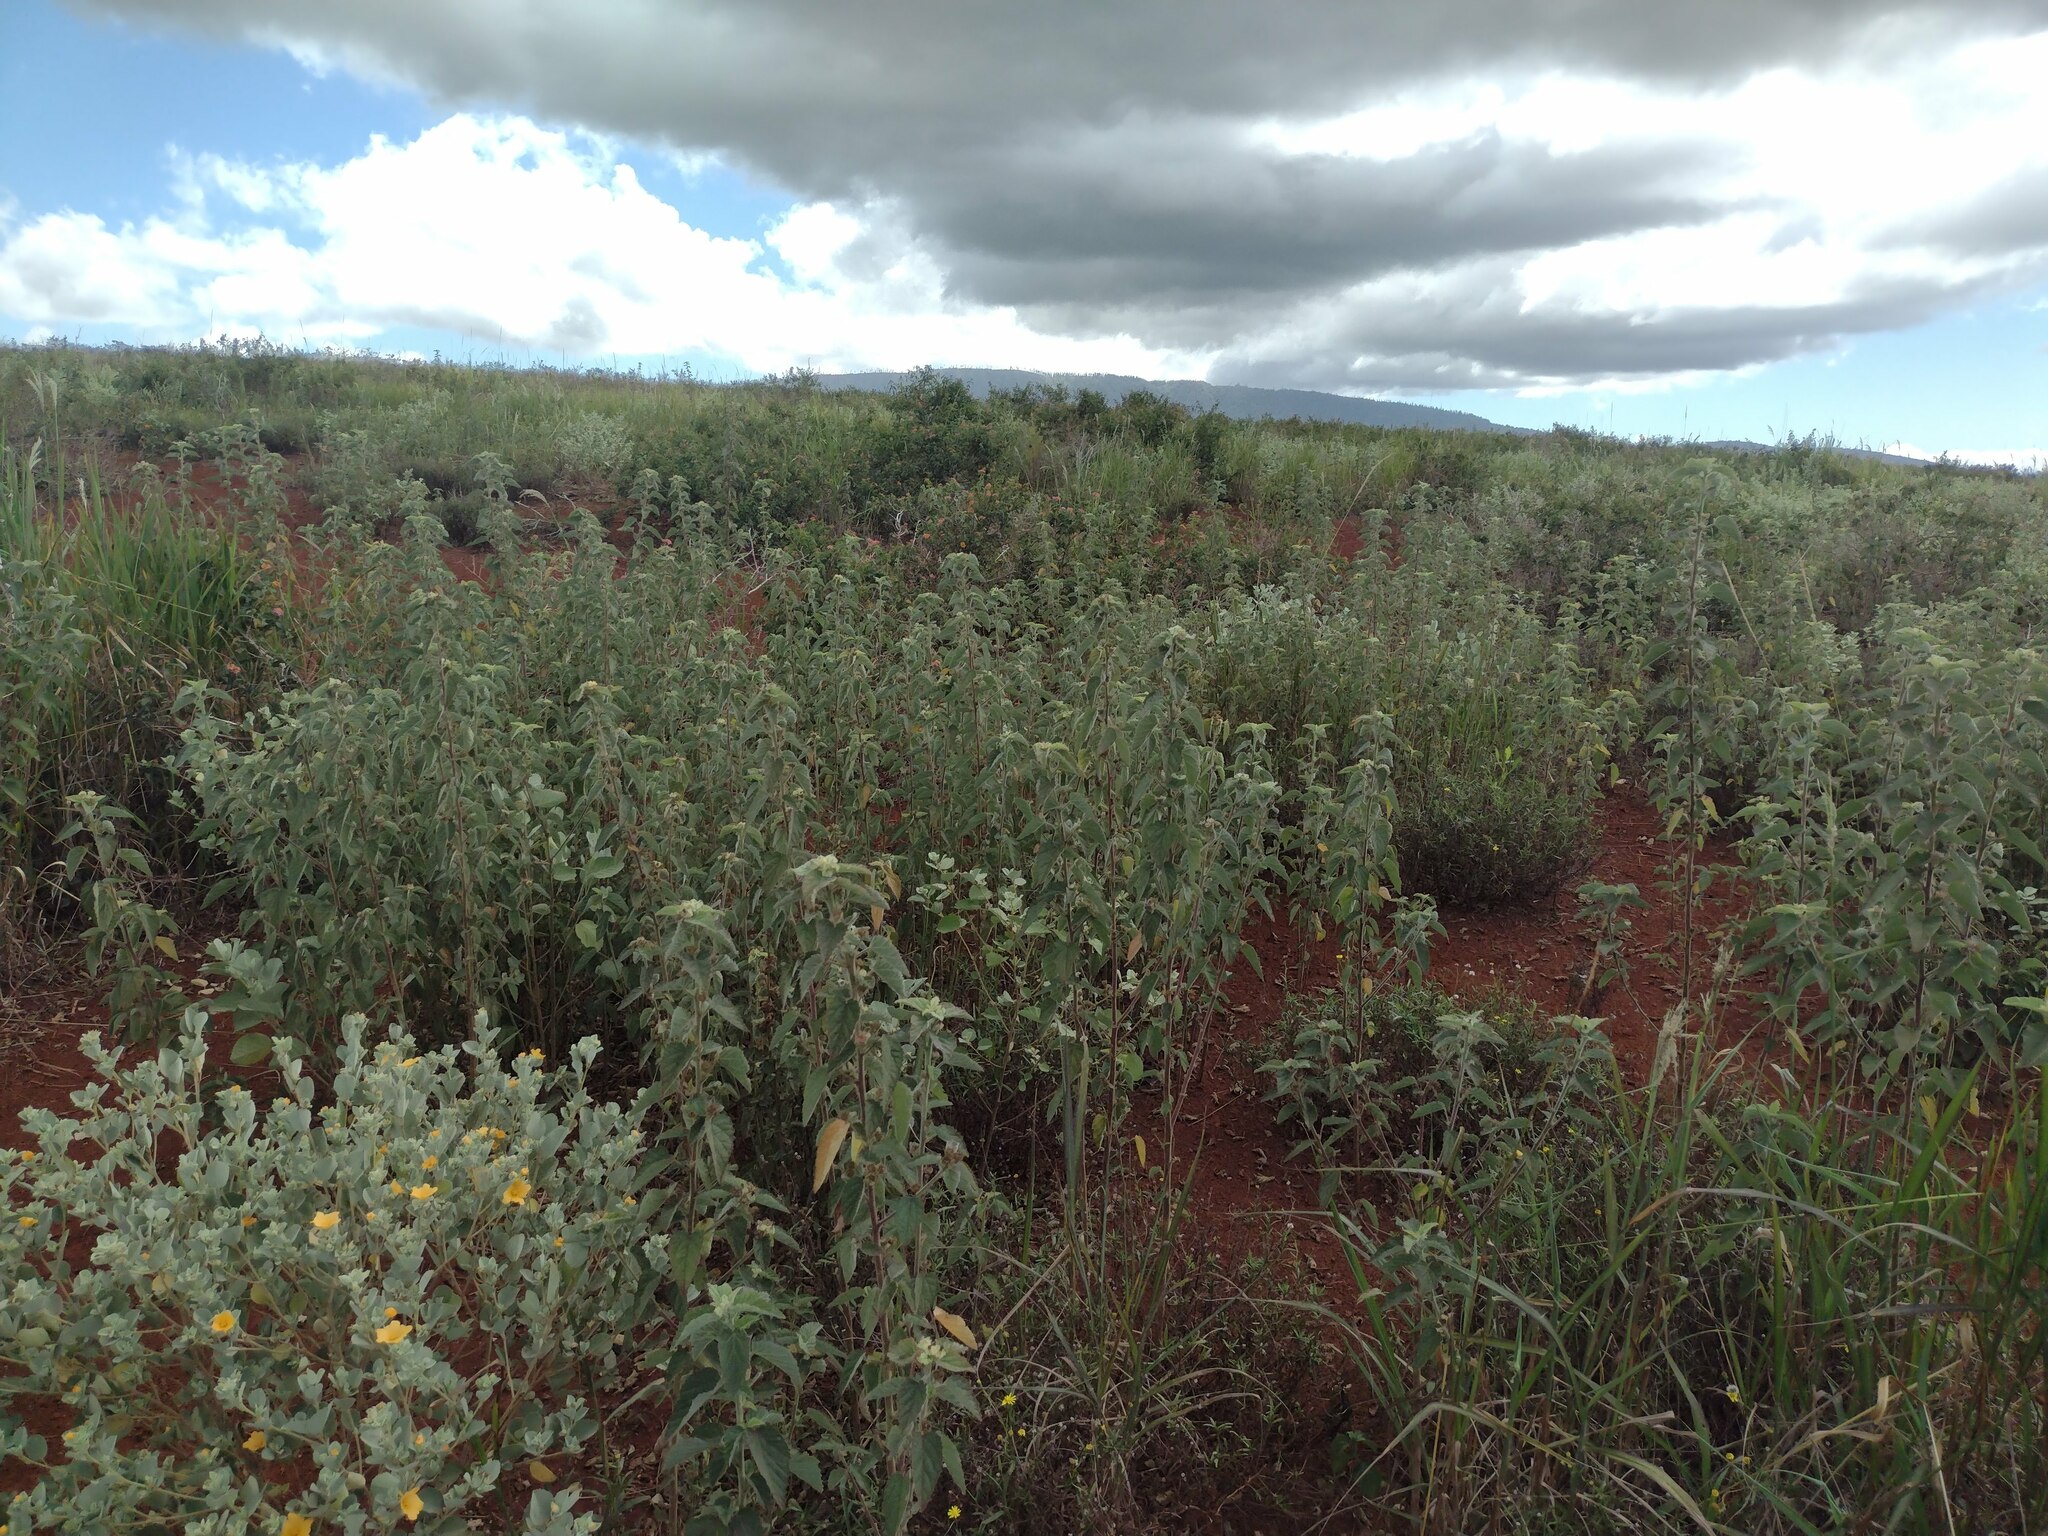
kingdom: Plantae
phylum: Tracheophyta
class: Magnoliopsida
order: Malvales
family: Malvaceae
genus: Sida
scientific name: Sida cordifolia
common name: Ilima
